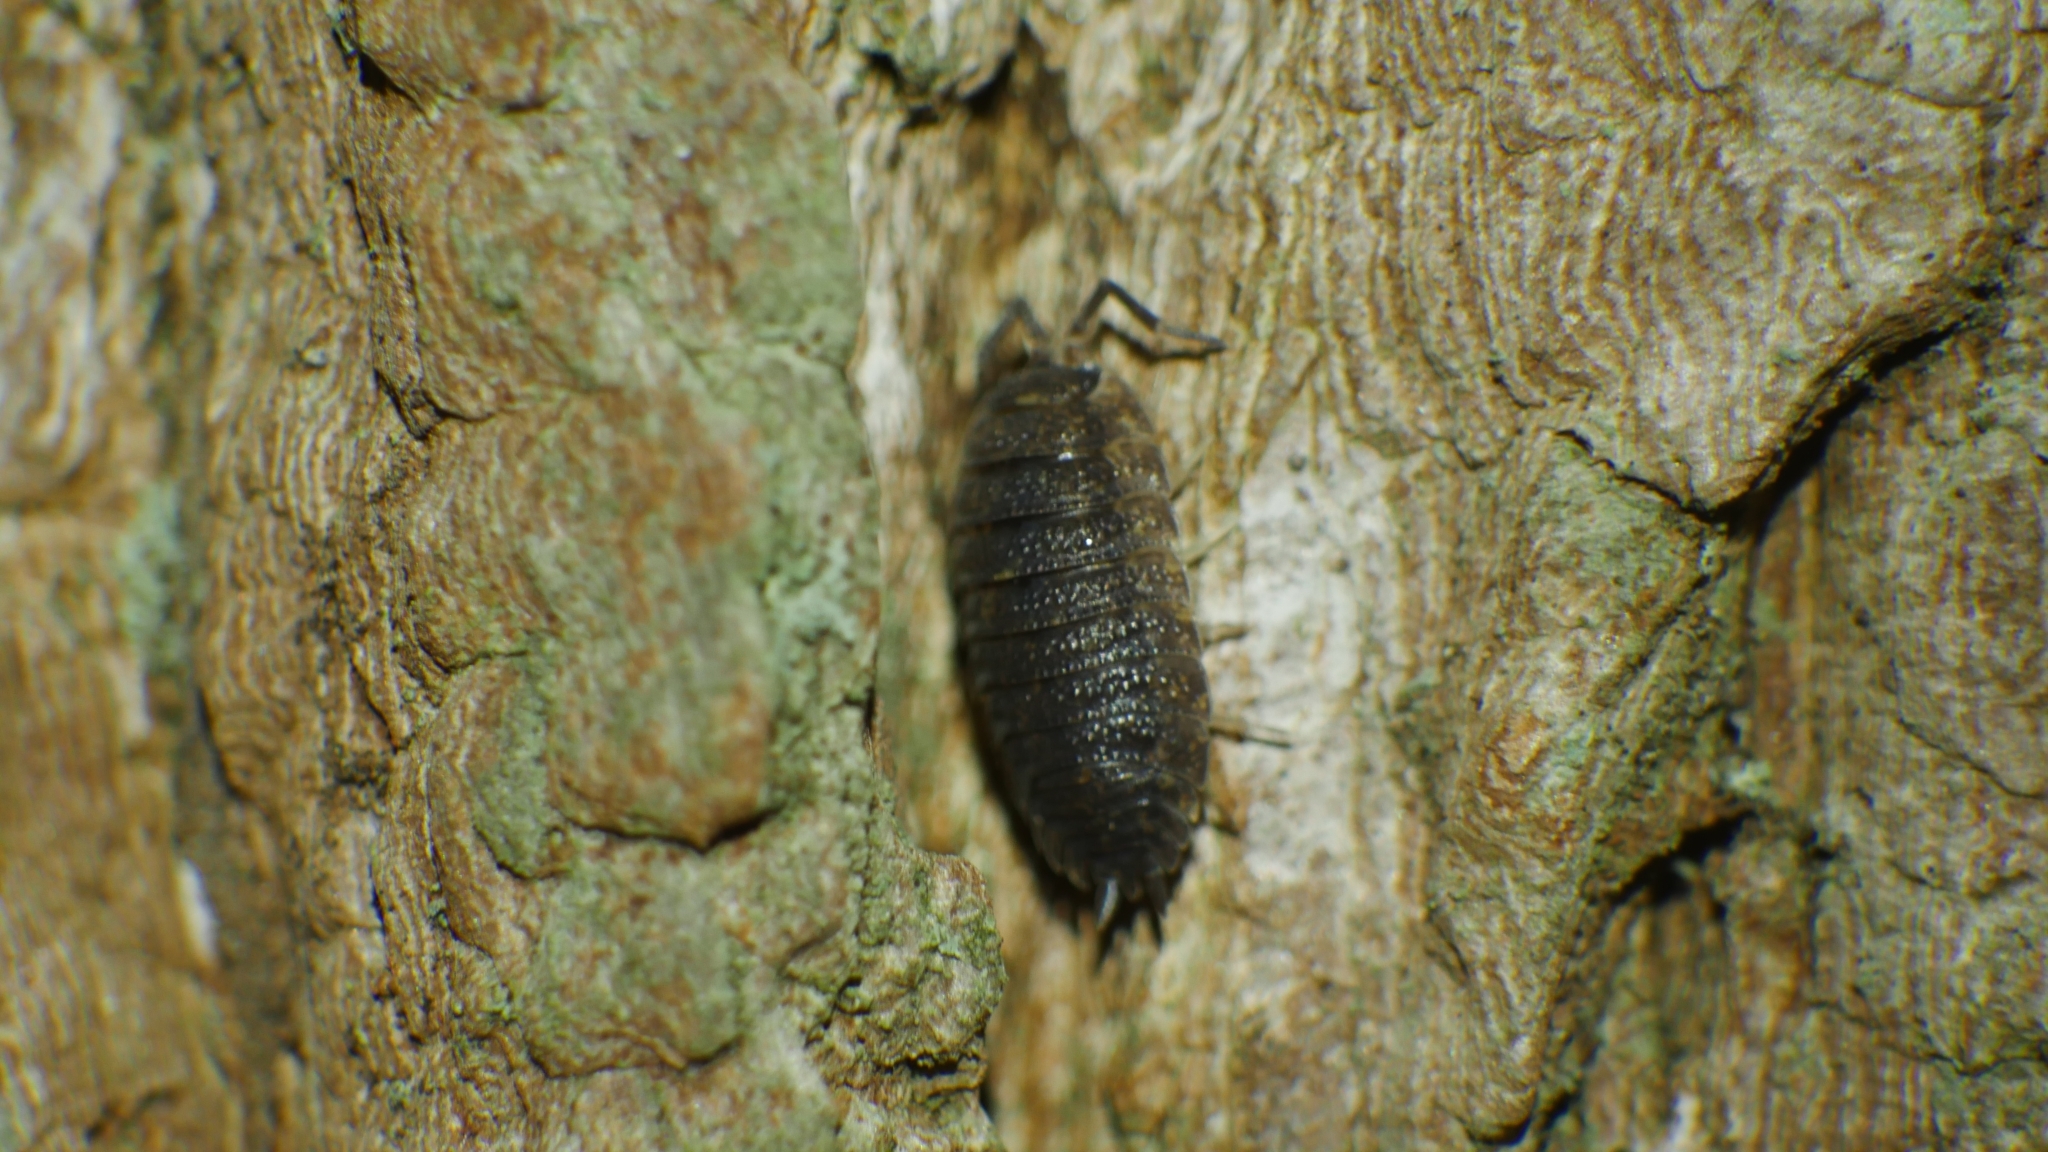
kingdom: Animalia
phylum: Arthropoda
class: Malacostraca
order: Isopoda
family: Porcellionidae
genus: Porcellio
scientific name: Porcellio scaber
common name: Common rough woodlouse
